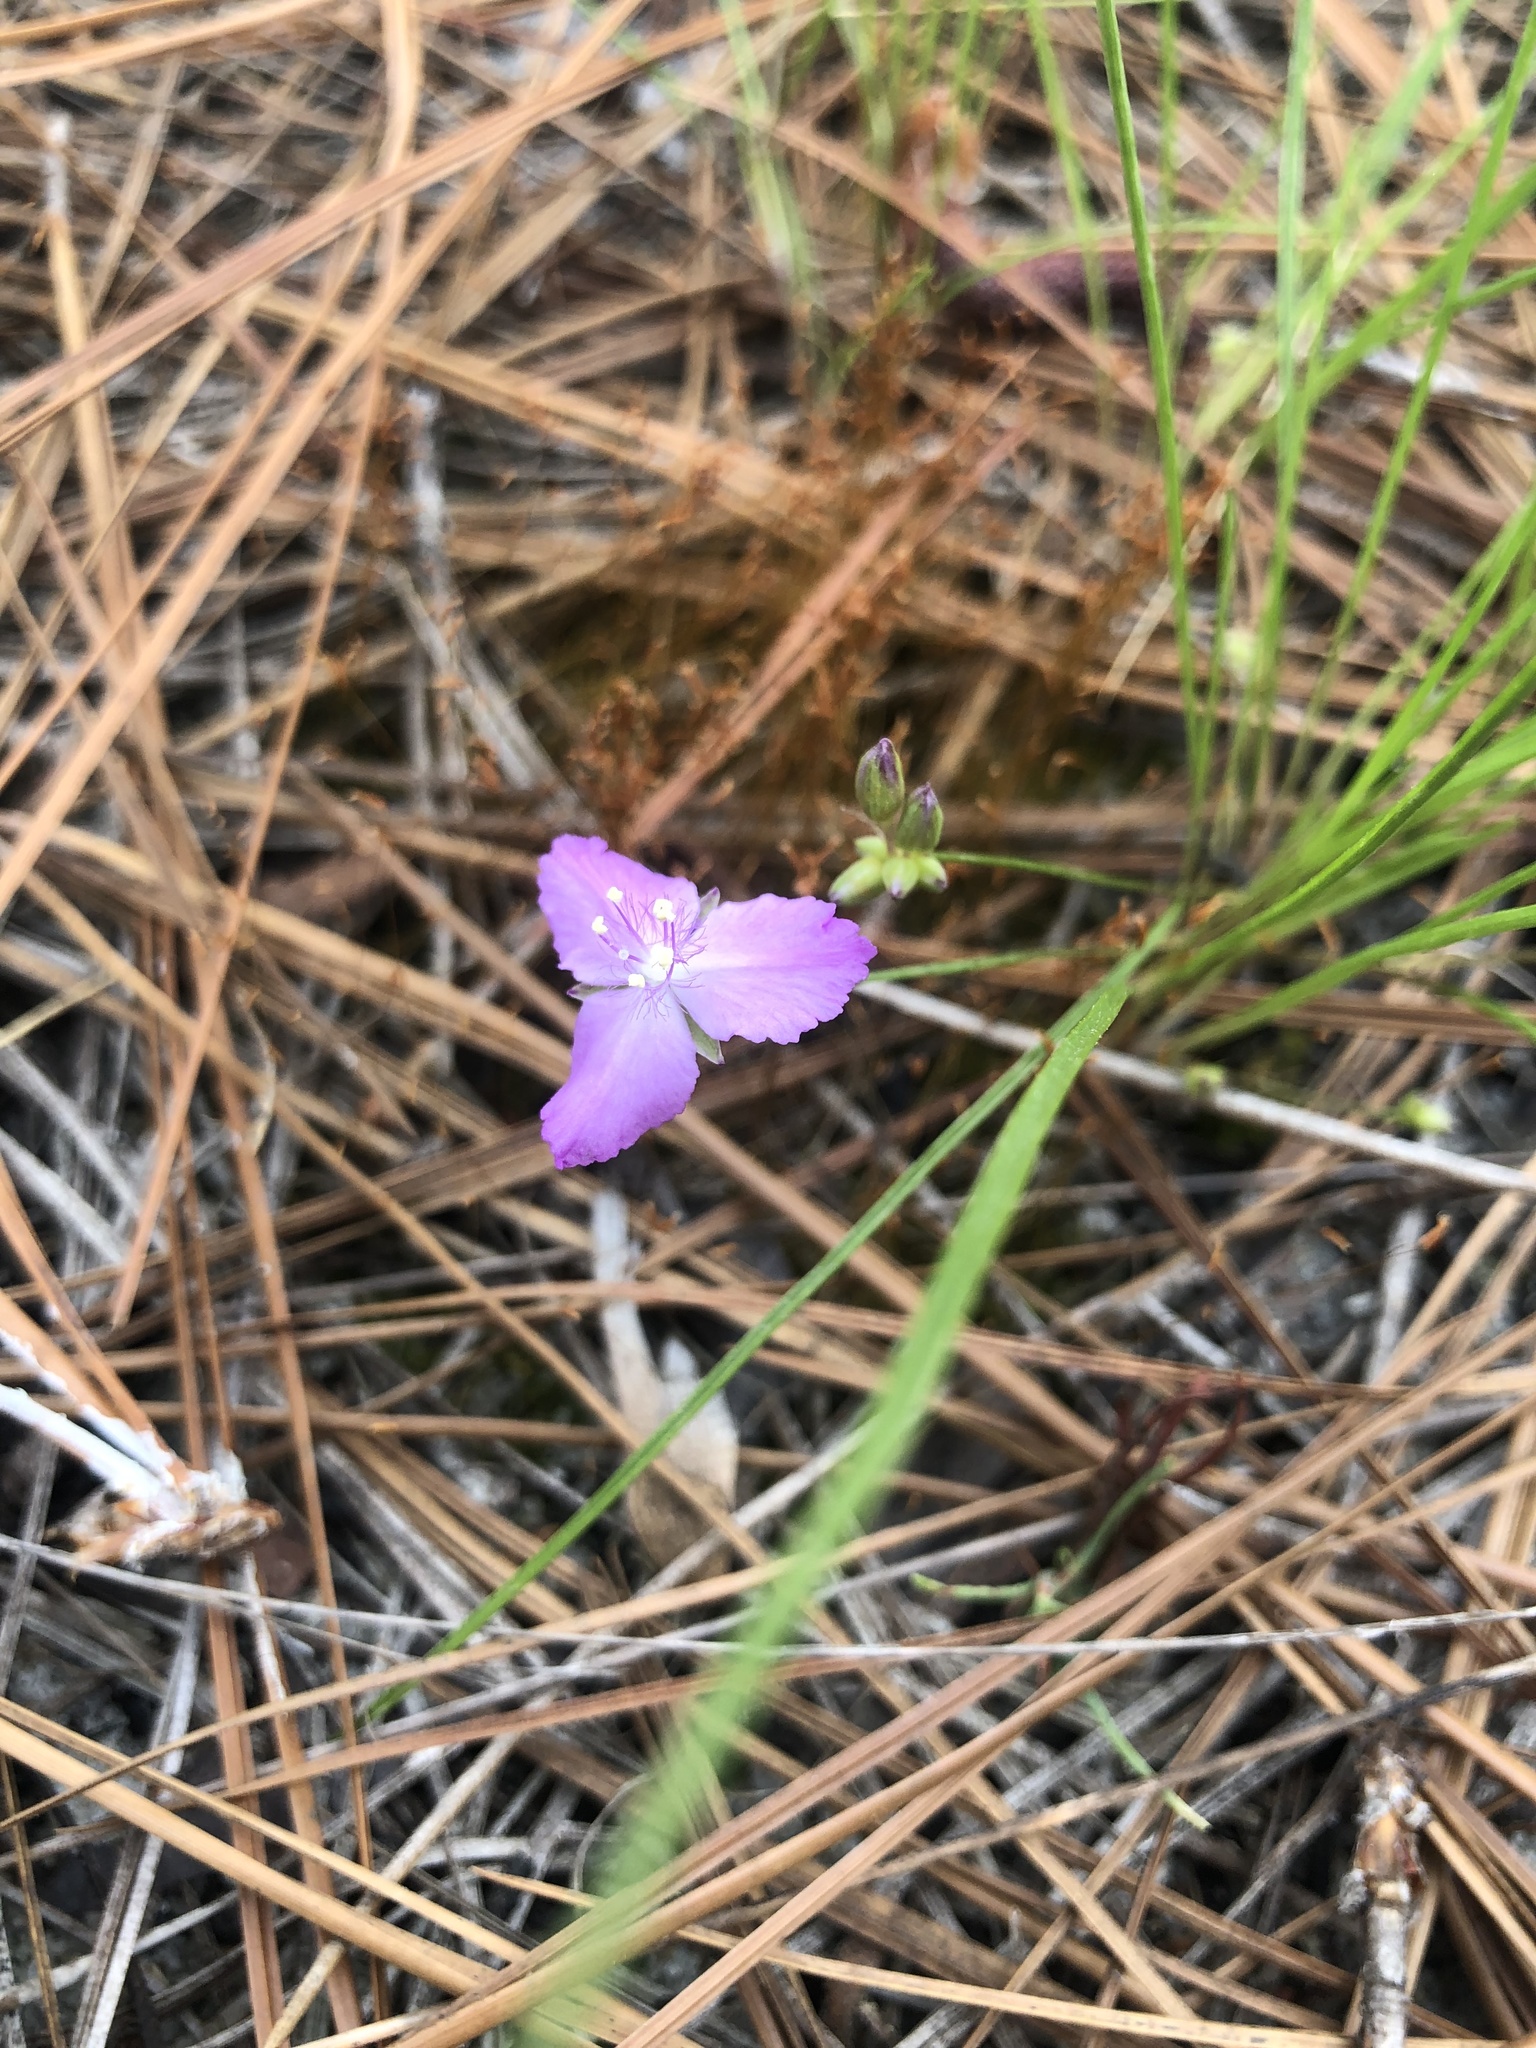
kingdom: Plantae
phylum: Tracheophyta
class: Liliopsida
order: Commelinales
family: Commelinaceae
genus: Callisia
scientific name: Callisia graminea
